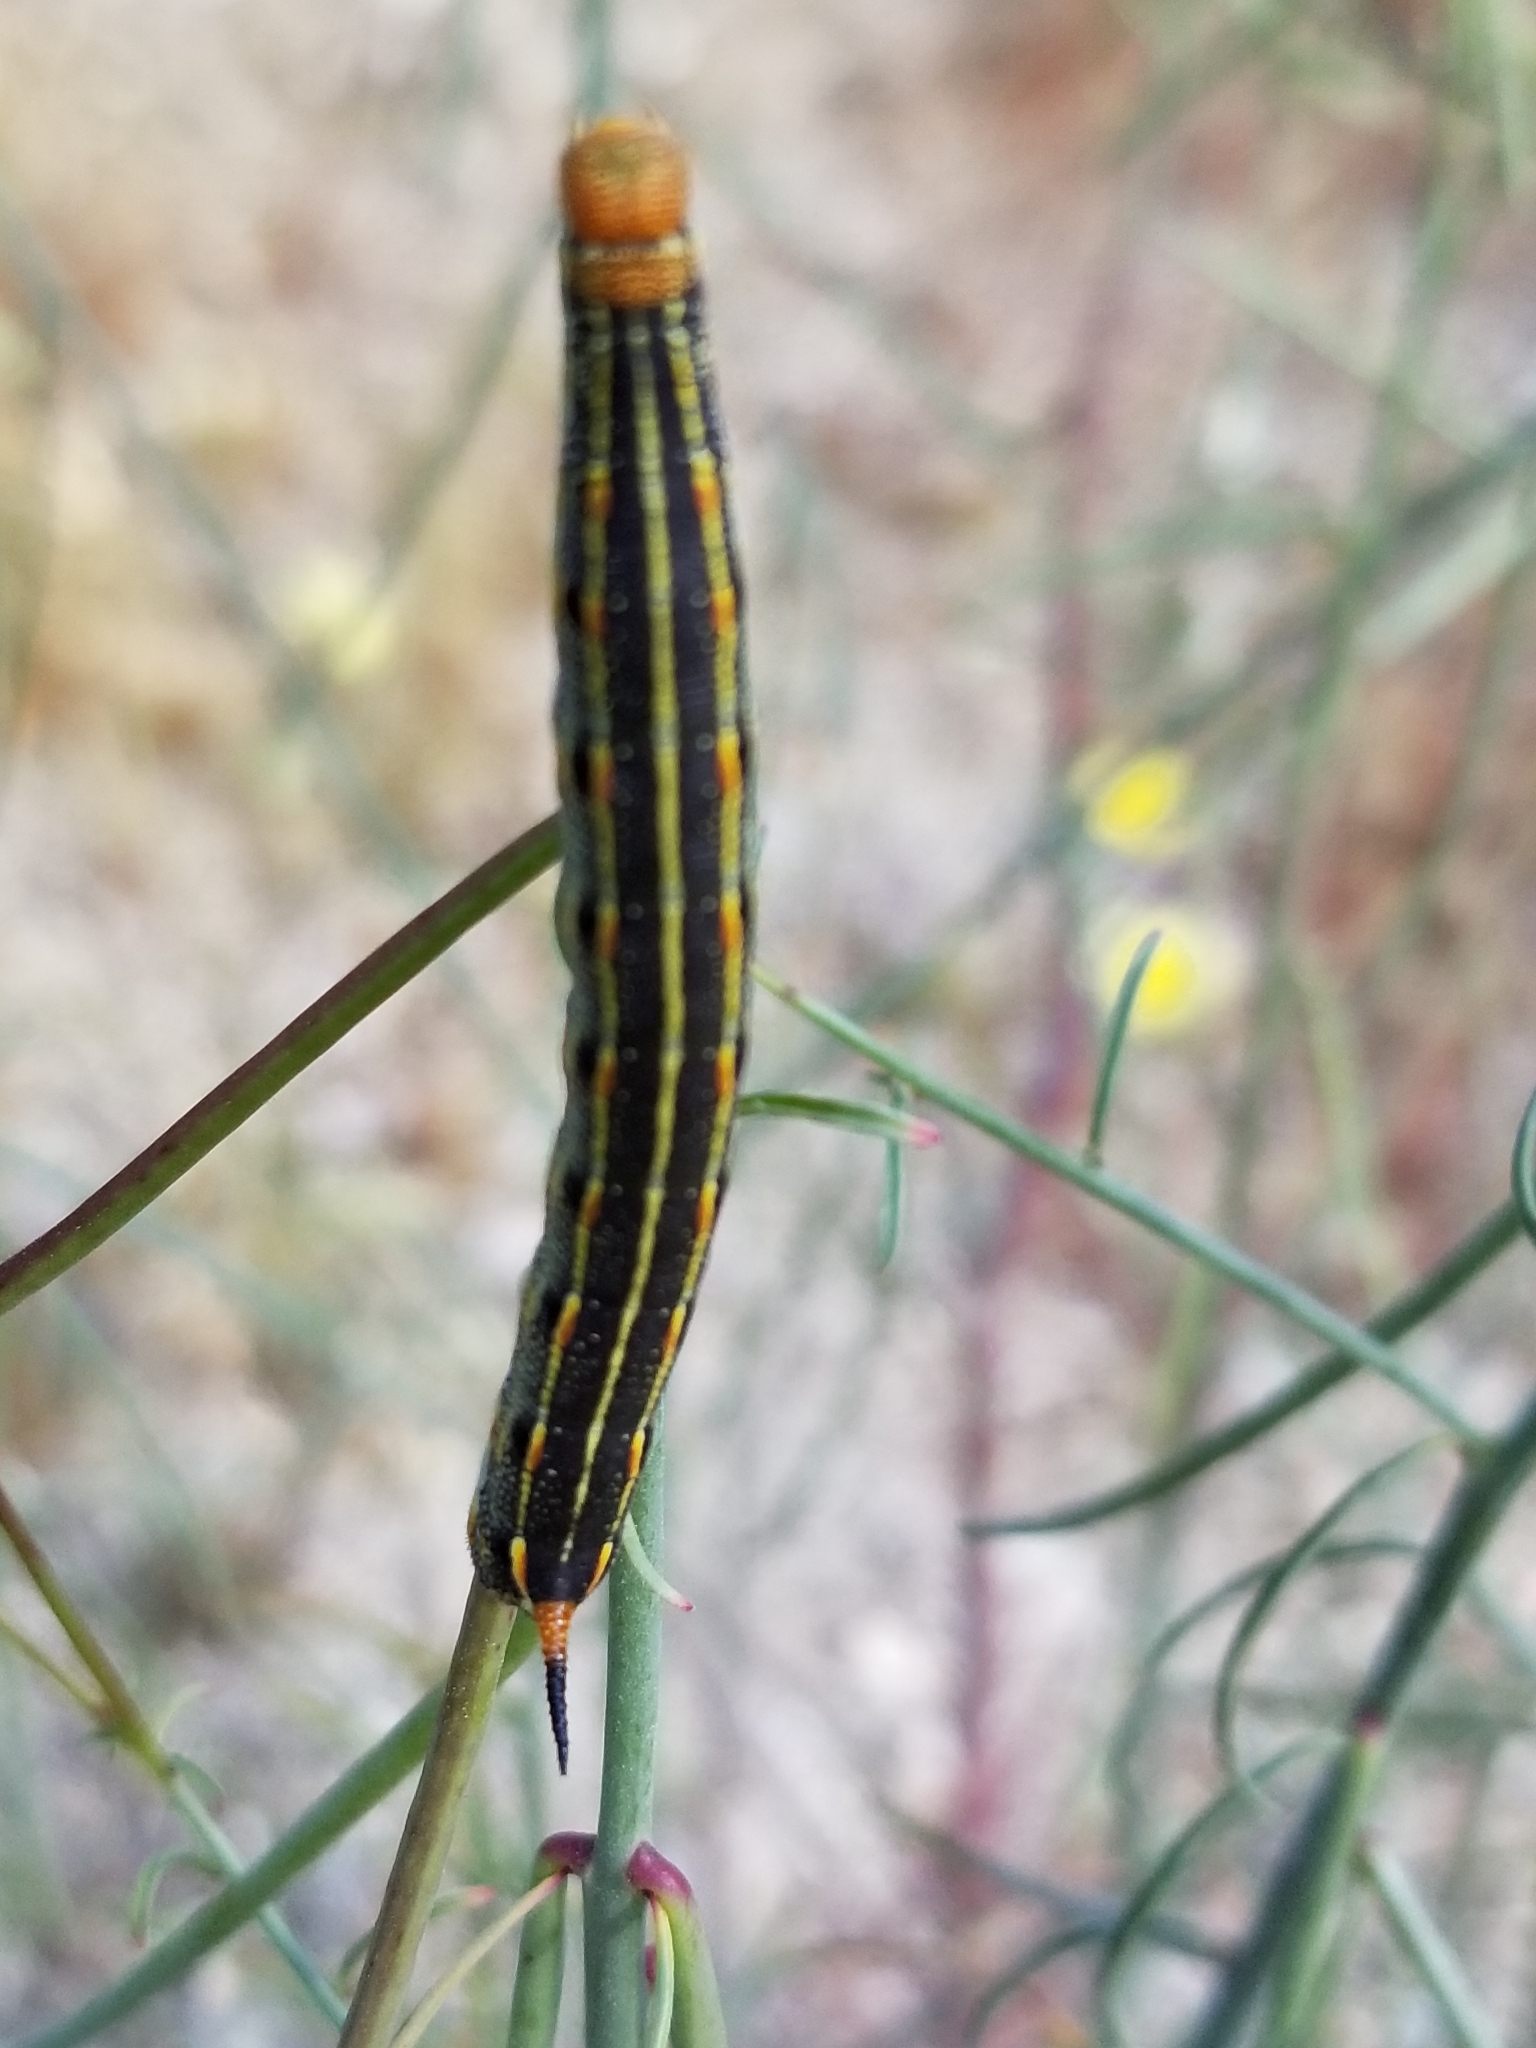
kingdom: Animalia
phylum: Arthropoda
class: Insecta
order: Lepidoptera
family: Sphingidae
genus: Hyles
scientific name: Hyles lineata
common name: White-lined sphinx
